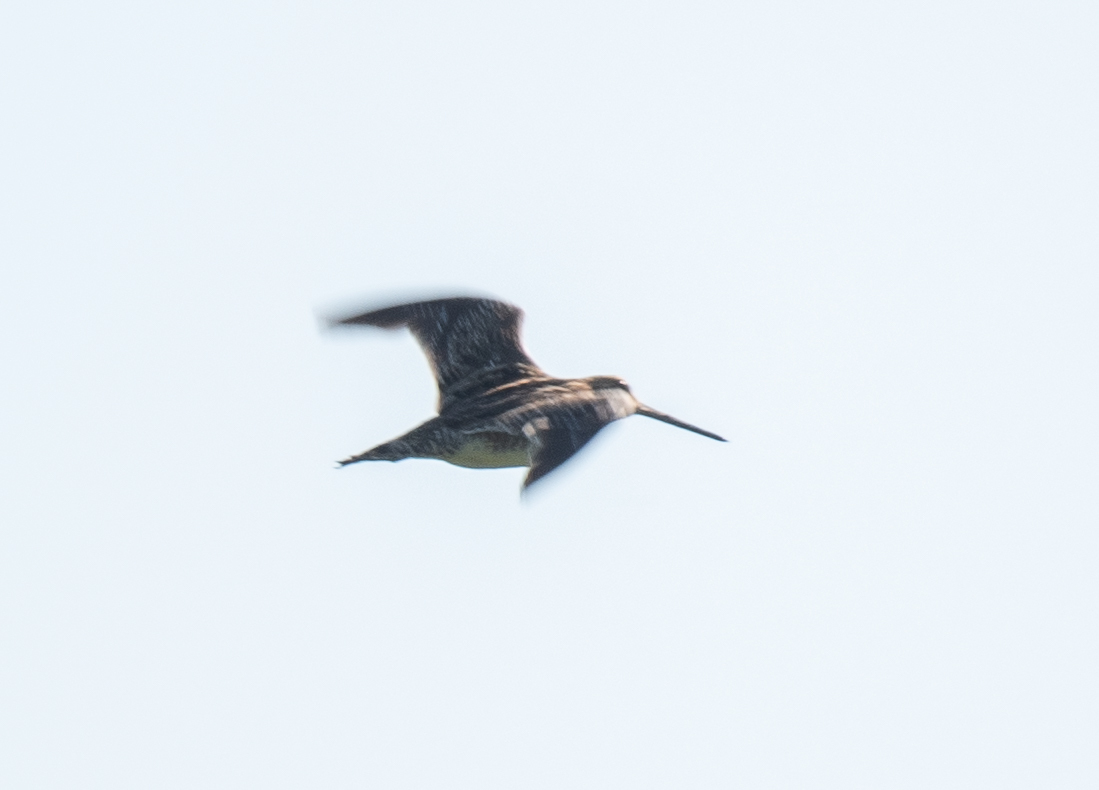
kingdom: Animalia
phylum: Chordata
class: Aves
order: Charadriiformes
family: Scolopacidae
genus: Gallinago
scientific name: Gallinago delicata
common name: Wilson's snipe
